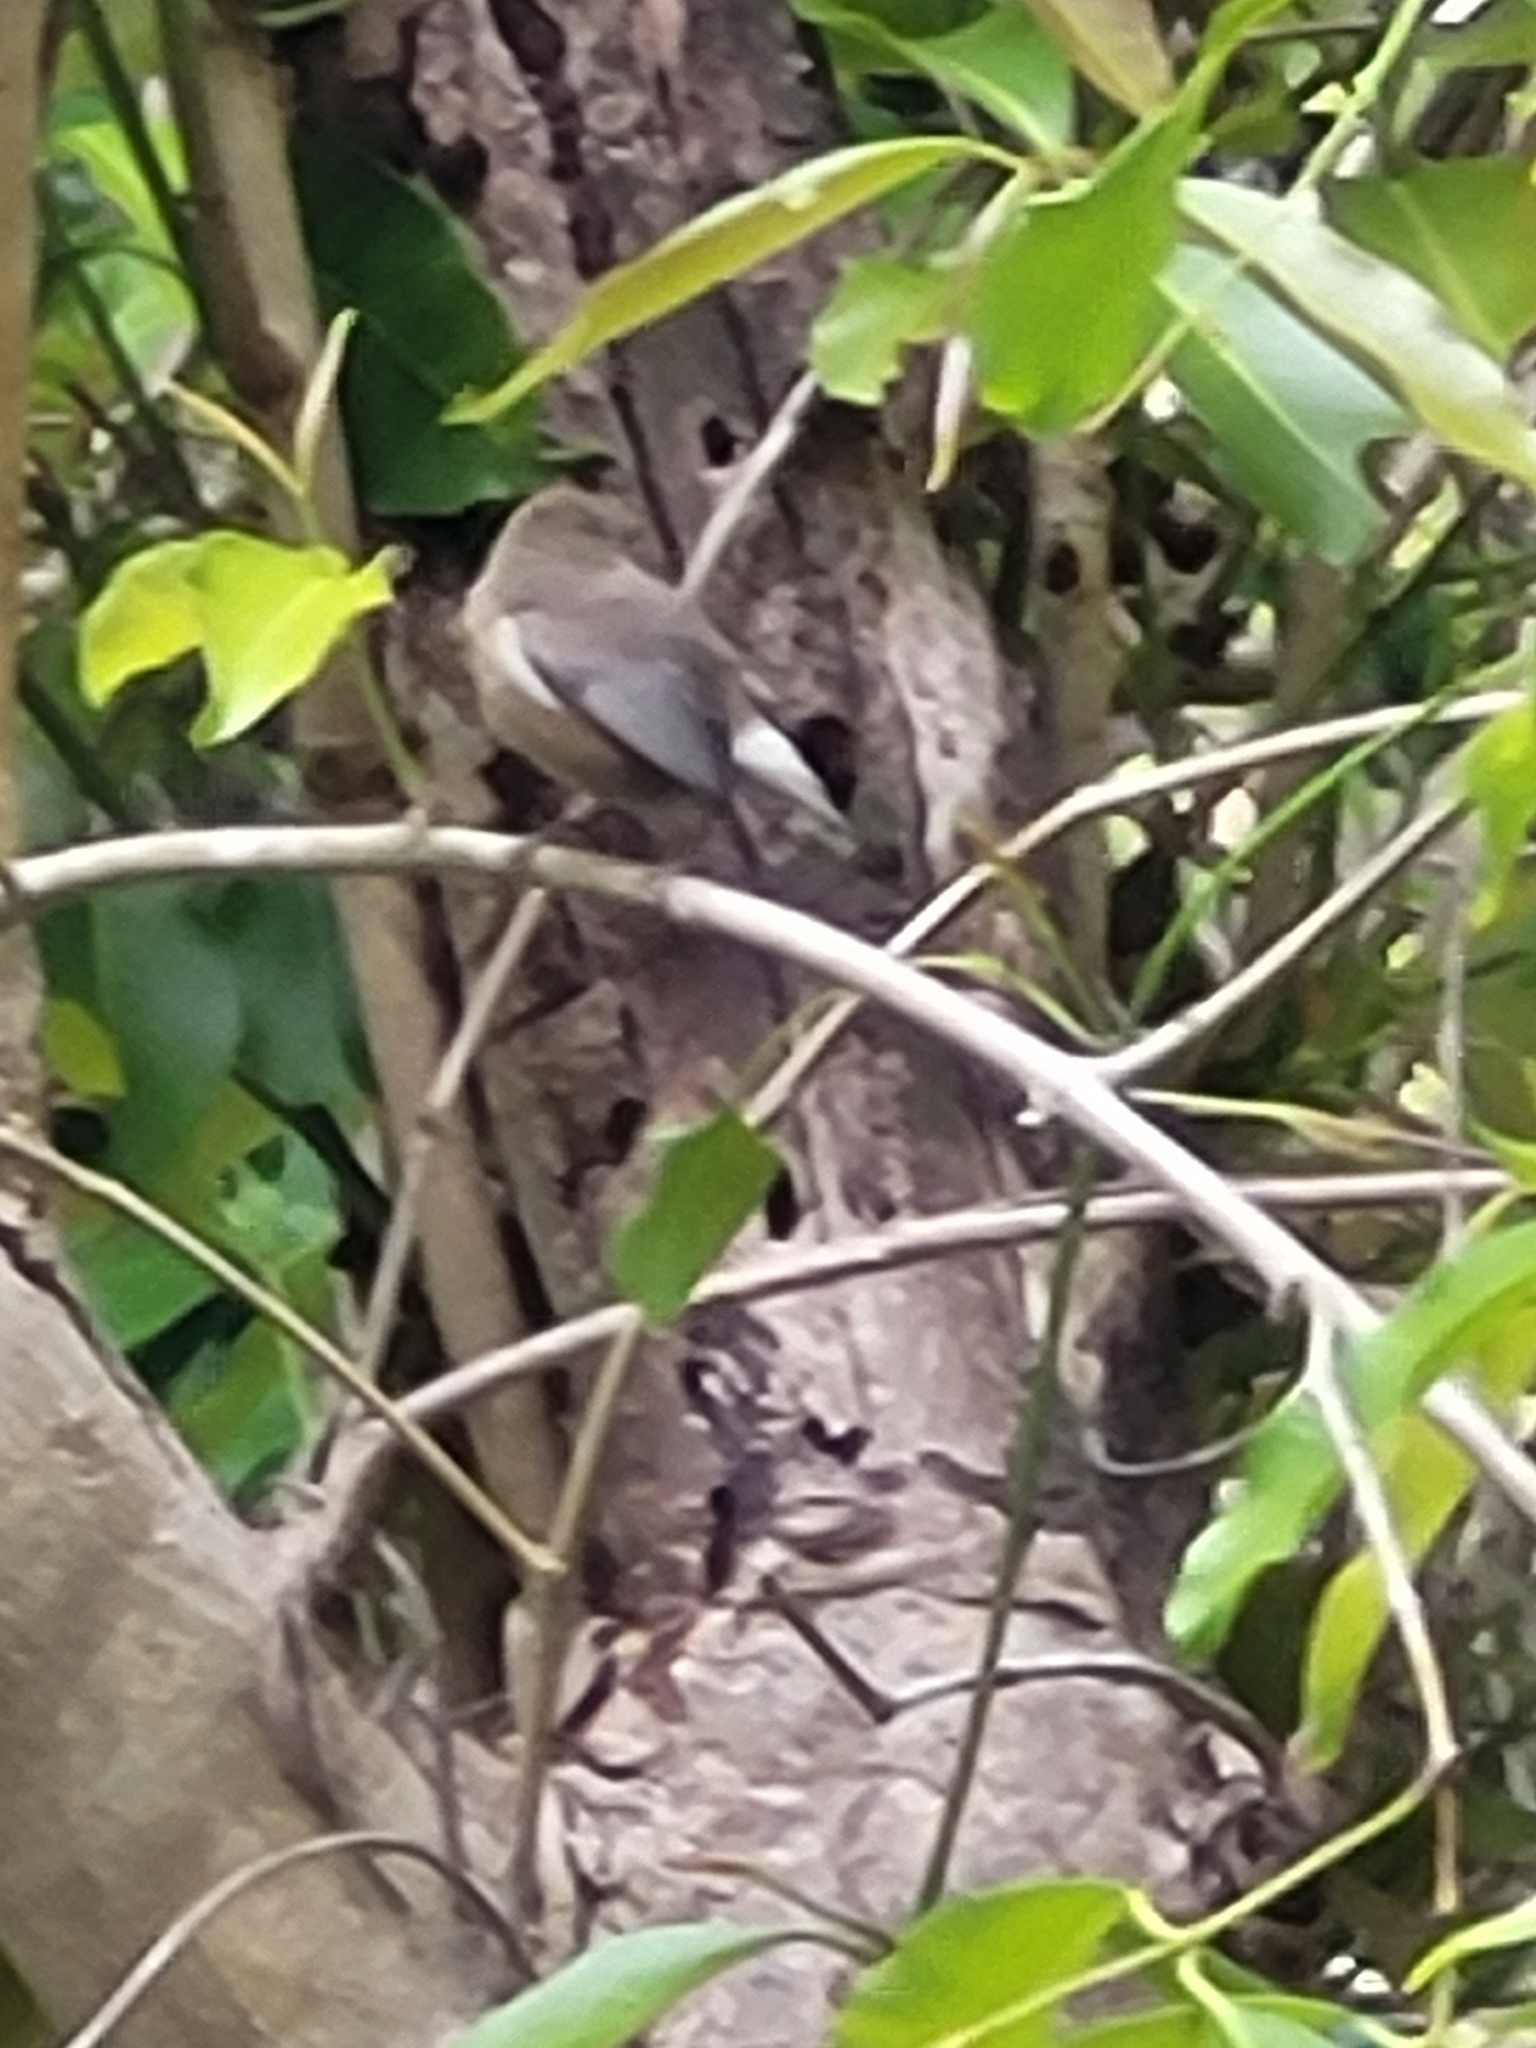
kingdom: Animalia
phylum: Chordata
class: Aves
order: Passeriformes
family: Zosteropidae
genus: Zosterops
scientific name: Zosterops borbonicus
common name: Reunion grey white-eye
